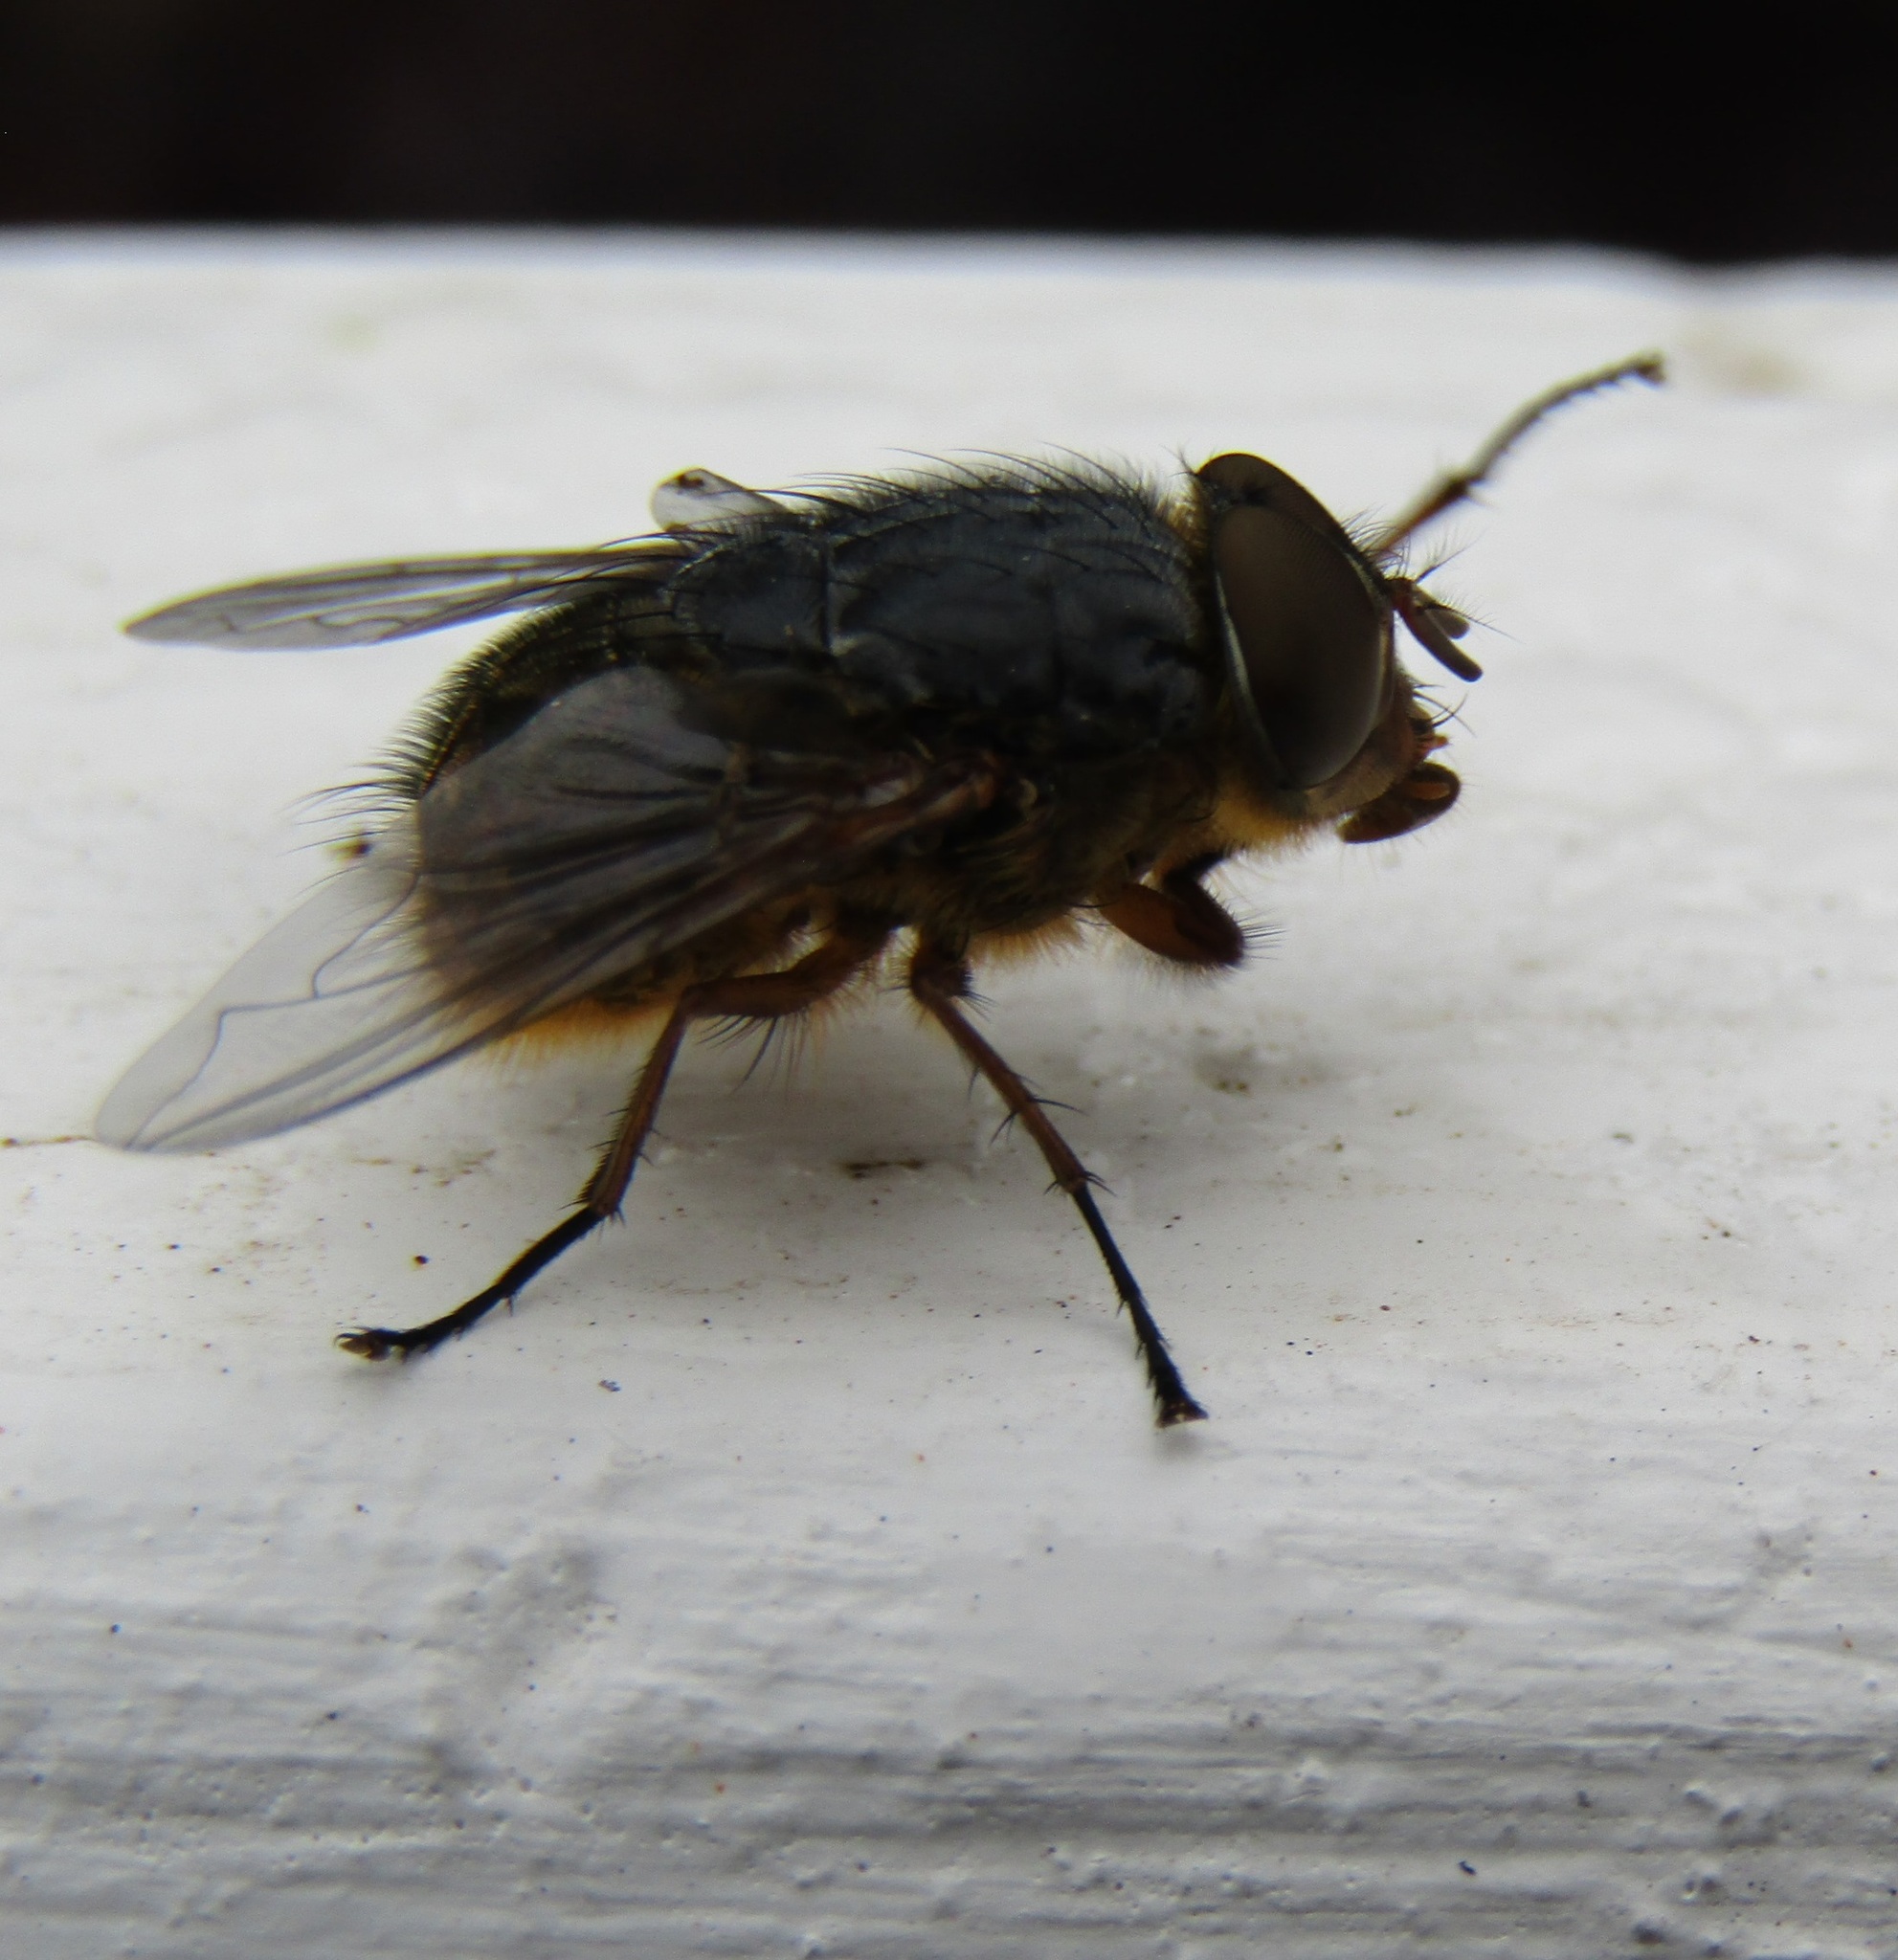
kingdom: Animalia
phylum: Arthropoda
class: Insecta
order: Diptera
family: Calliphoridae
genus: Calliphora
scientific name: Calliphora stygia
